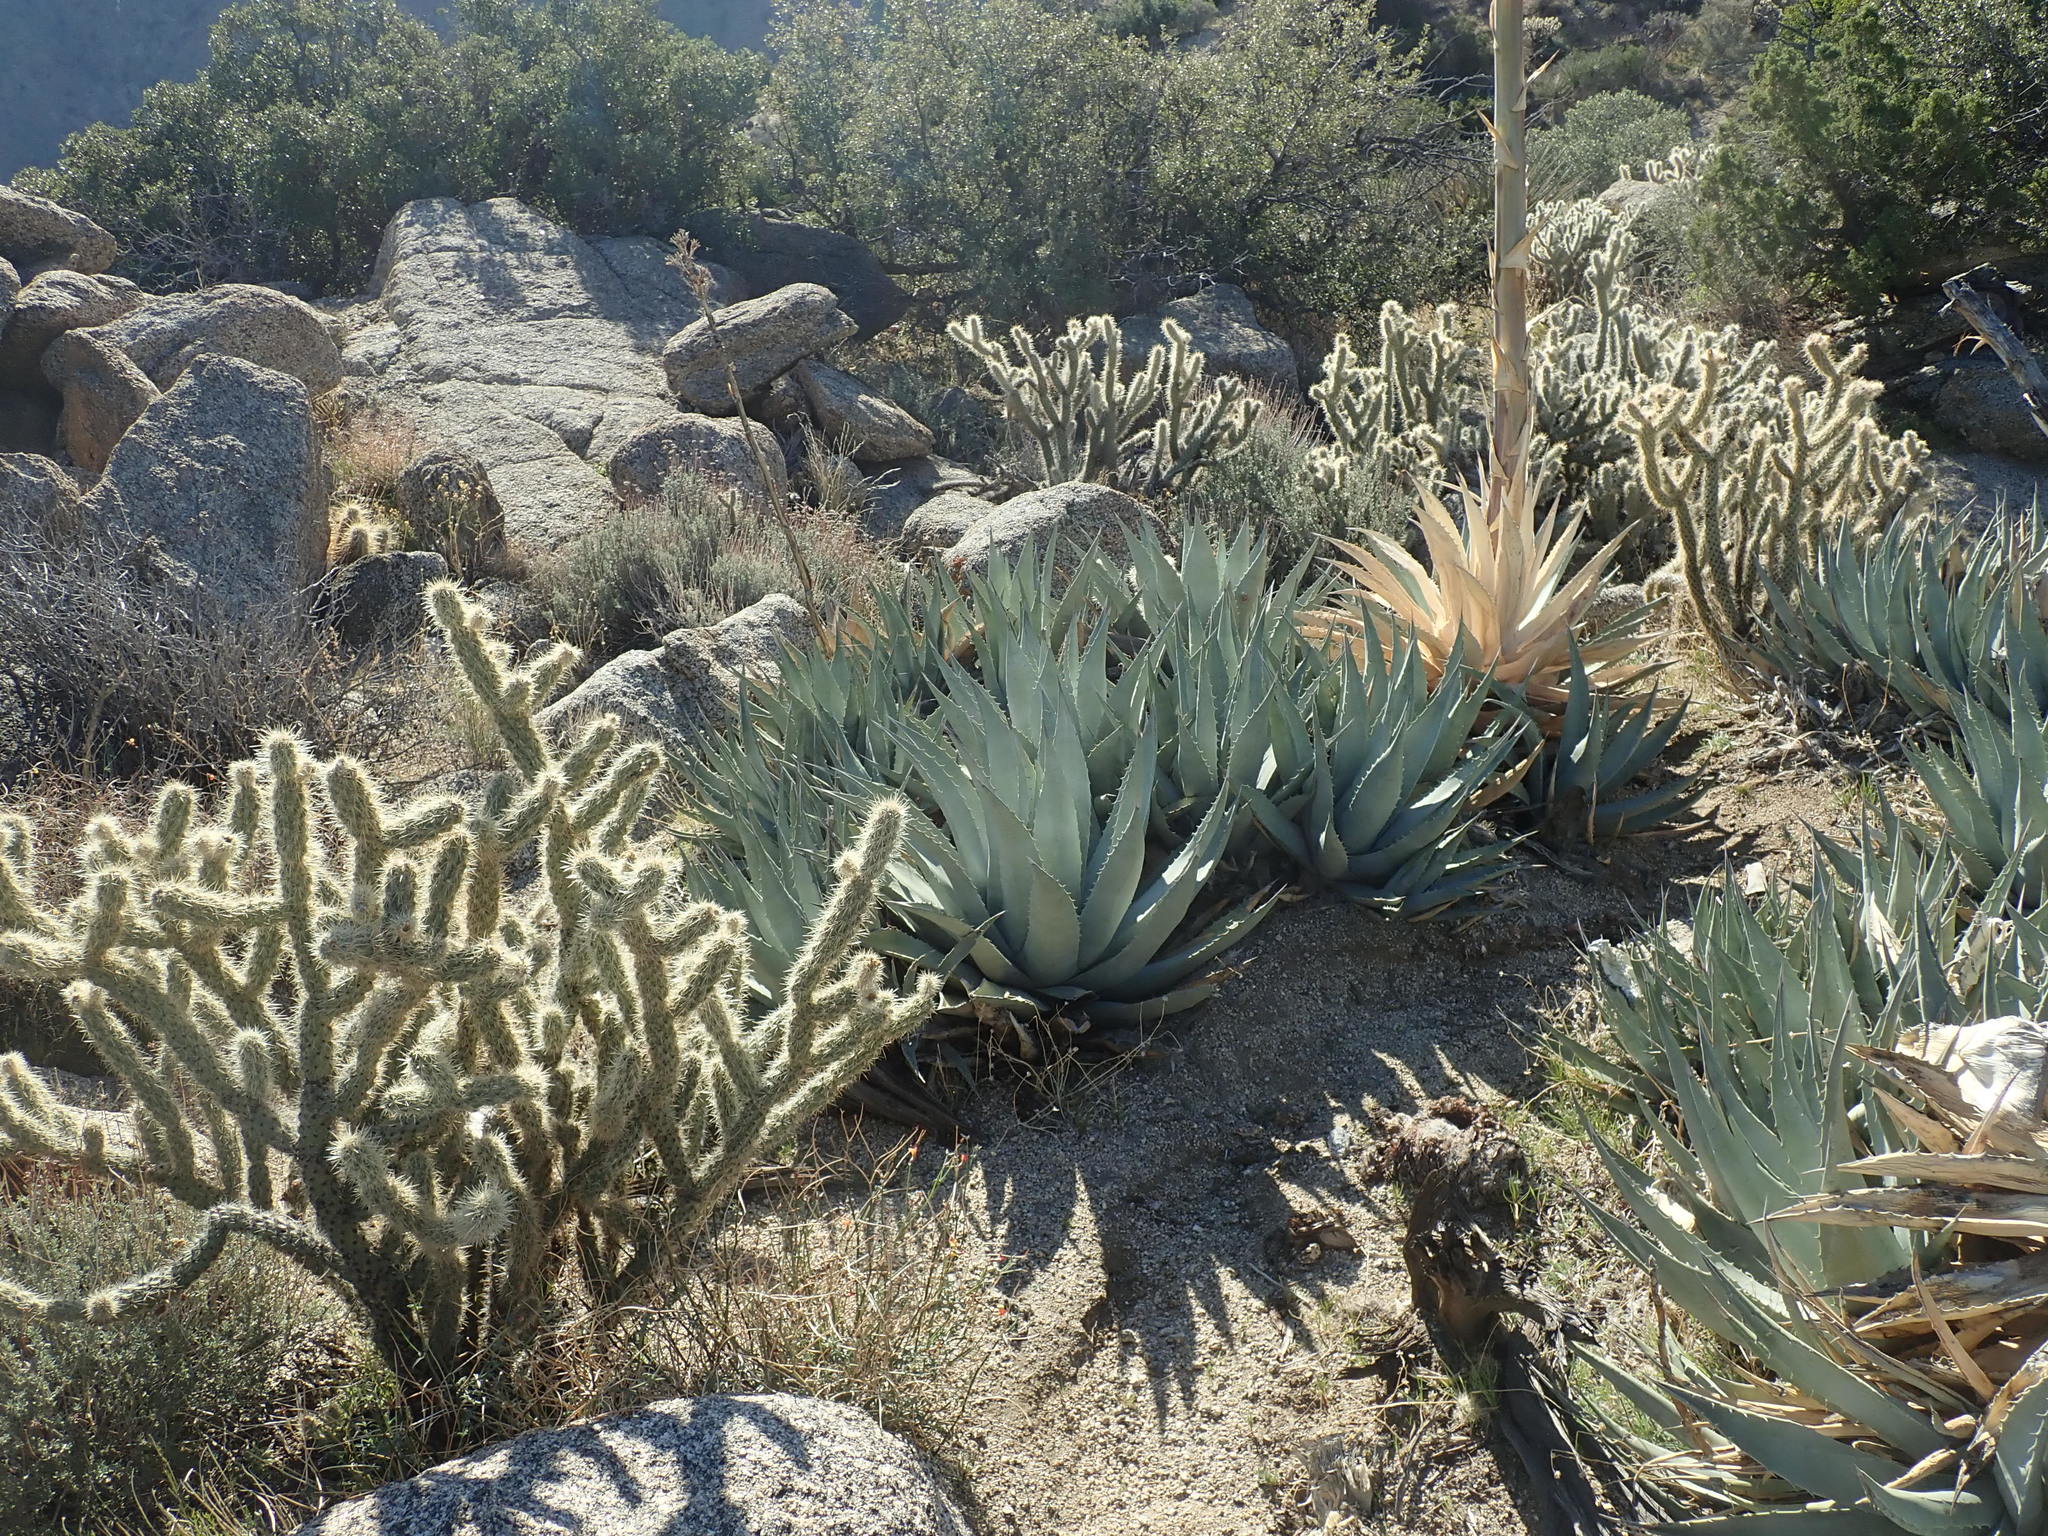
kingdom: Plantae
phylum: Tracheophyta
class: Liliopsida
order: Asparagales
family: Asparagaceae
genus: Agave
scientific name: Agave deserti
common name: Desert agave
